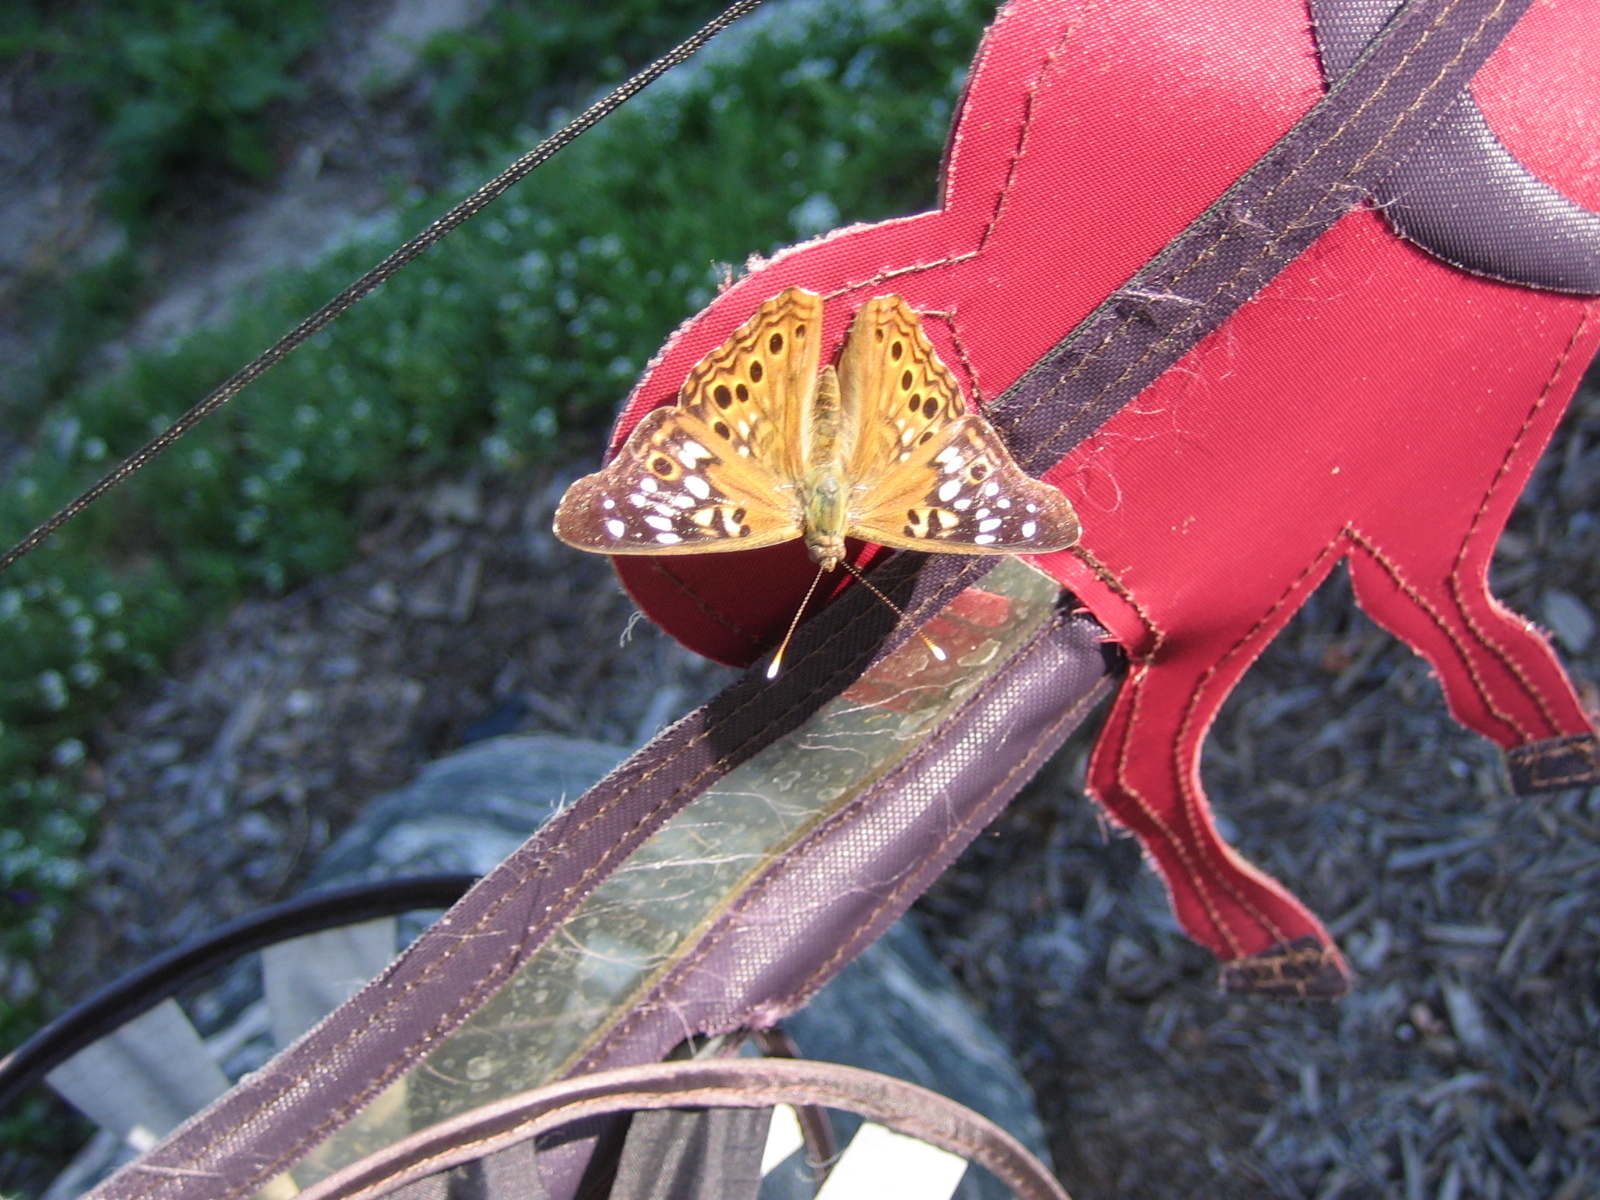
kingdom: Animalia
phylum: Arthropoda
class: Insecta
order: Lepidoptera
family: Nymphalidae
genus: Asterocampa
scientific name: Asterocampa celtis
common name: Hackberry emperor
